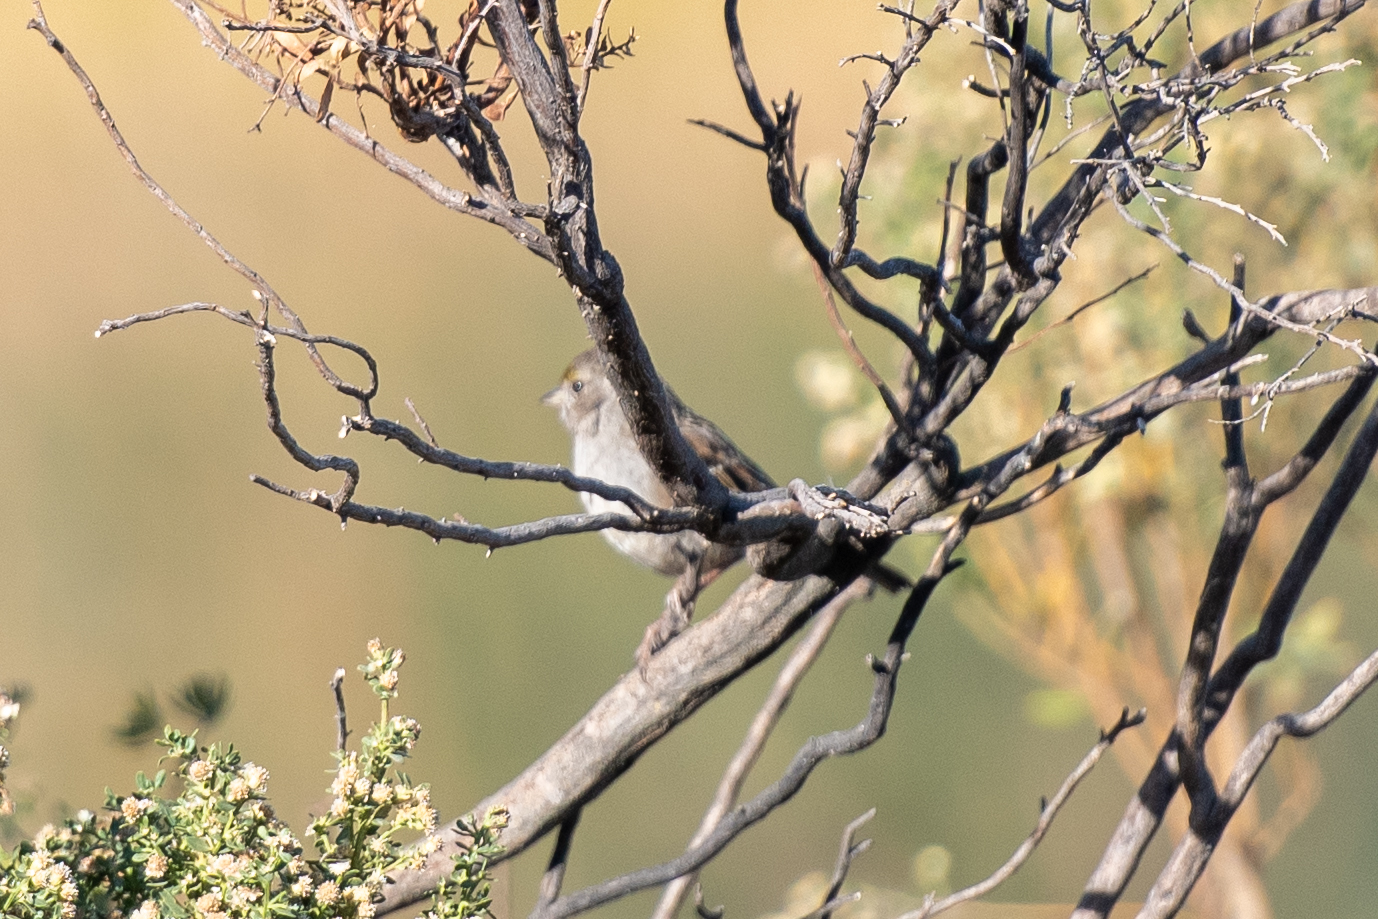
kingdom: Animalia
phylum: Chordata
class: Aves
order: Passeriformes
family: Passerellidae
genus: Zonotrichia
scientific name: Zonotrichia atricapilla
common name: Golden-crowned sparrow
